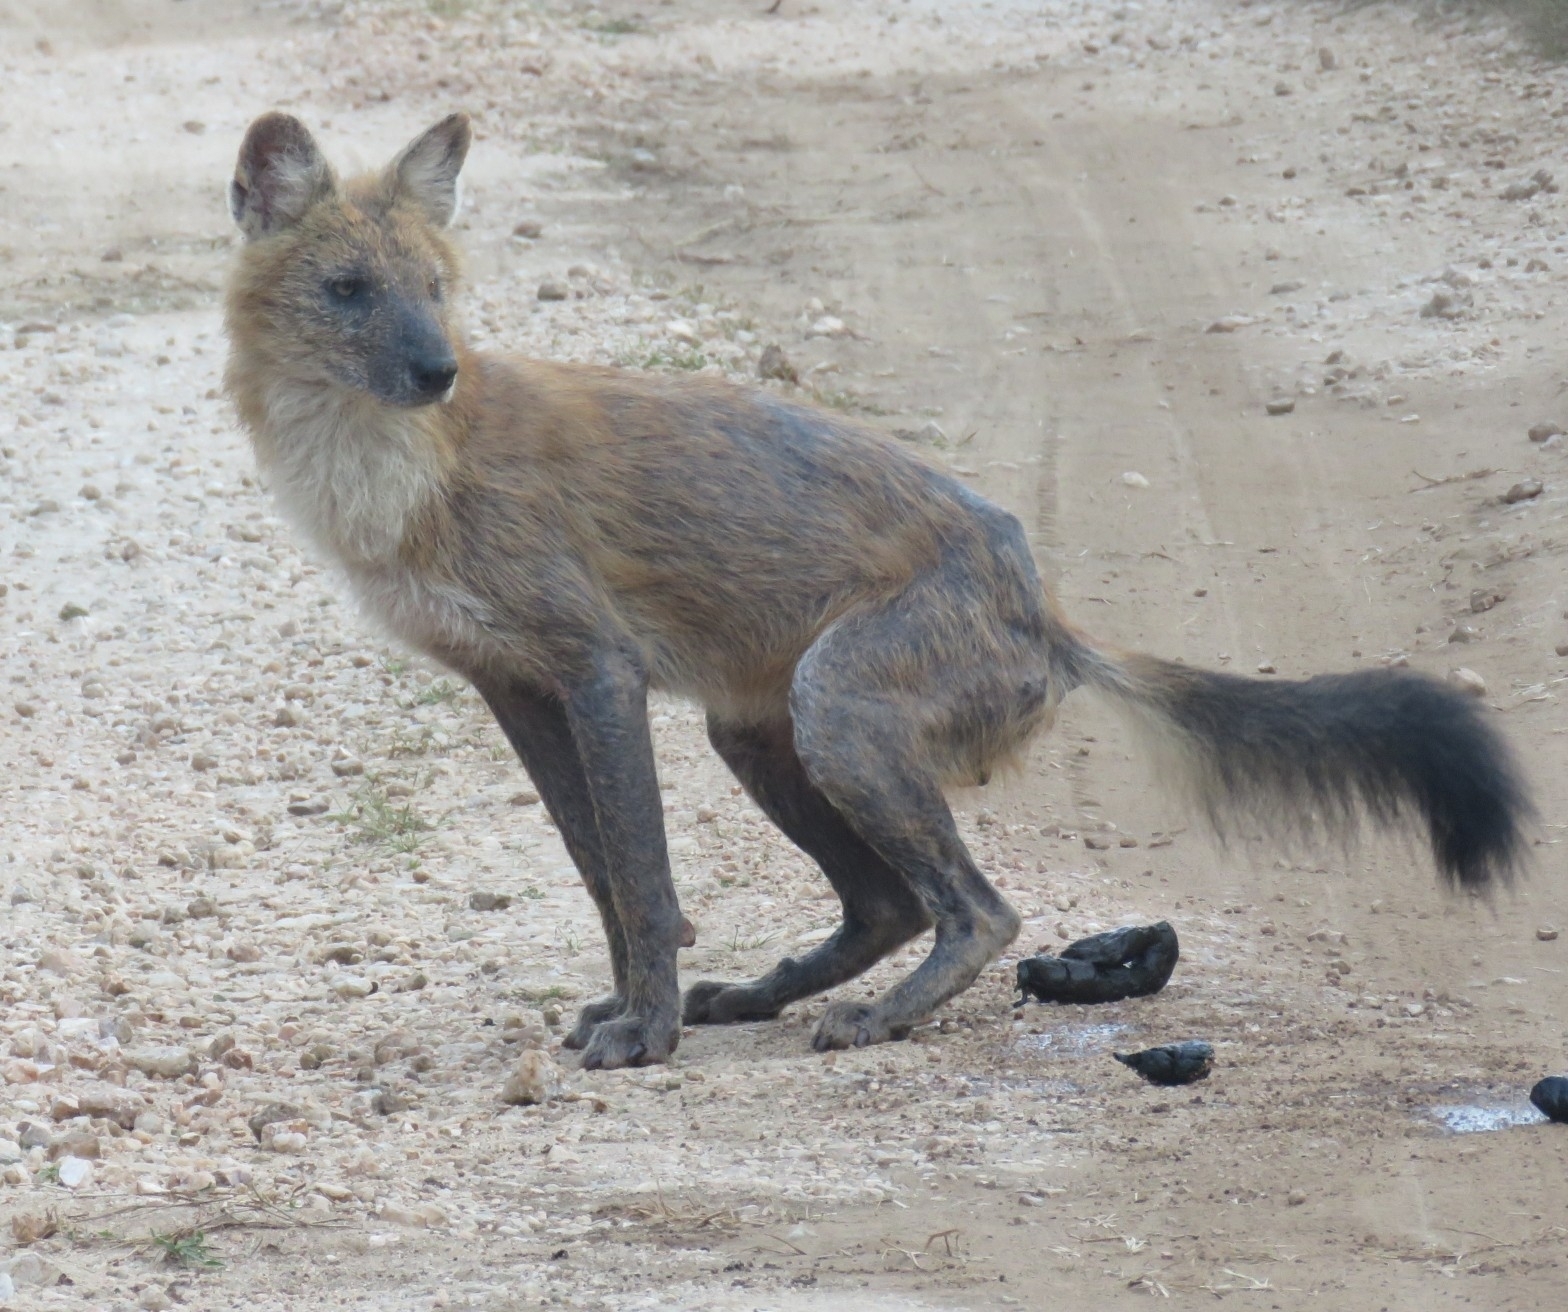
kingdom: Animalia
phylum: Chordata
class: Mammalia
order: Carnivora
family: Canidae
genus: Cuon
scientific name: Cuon alpinus
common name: Dhole
